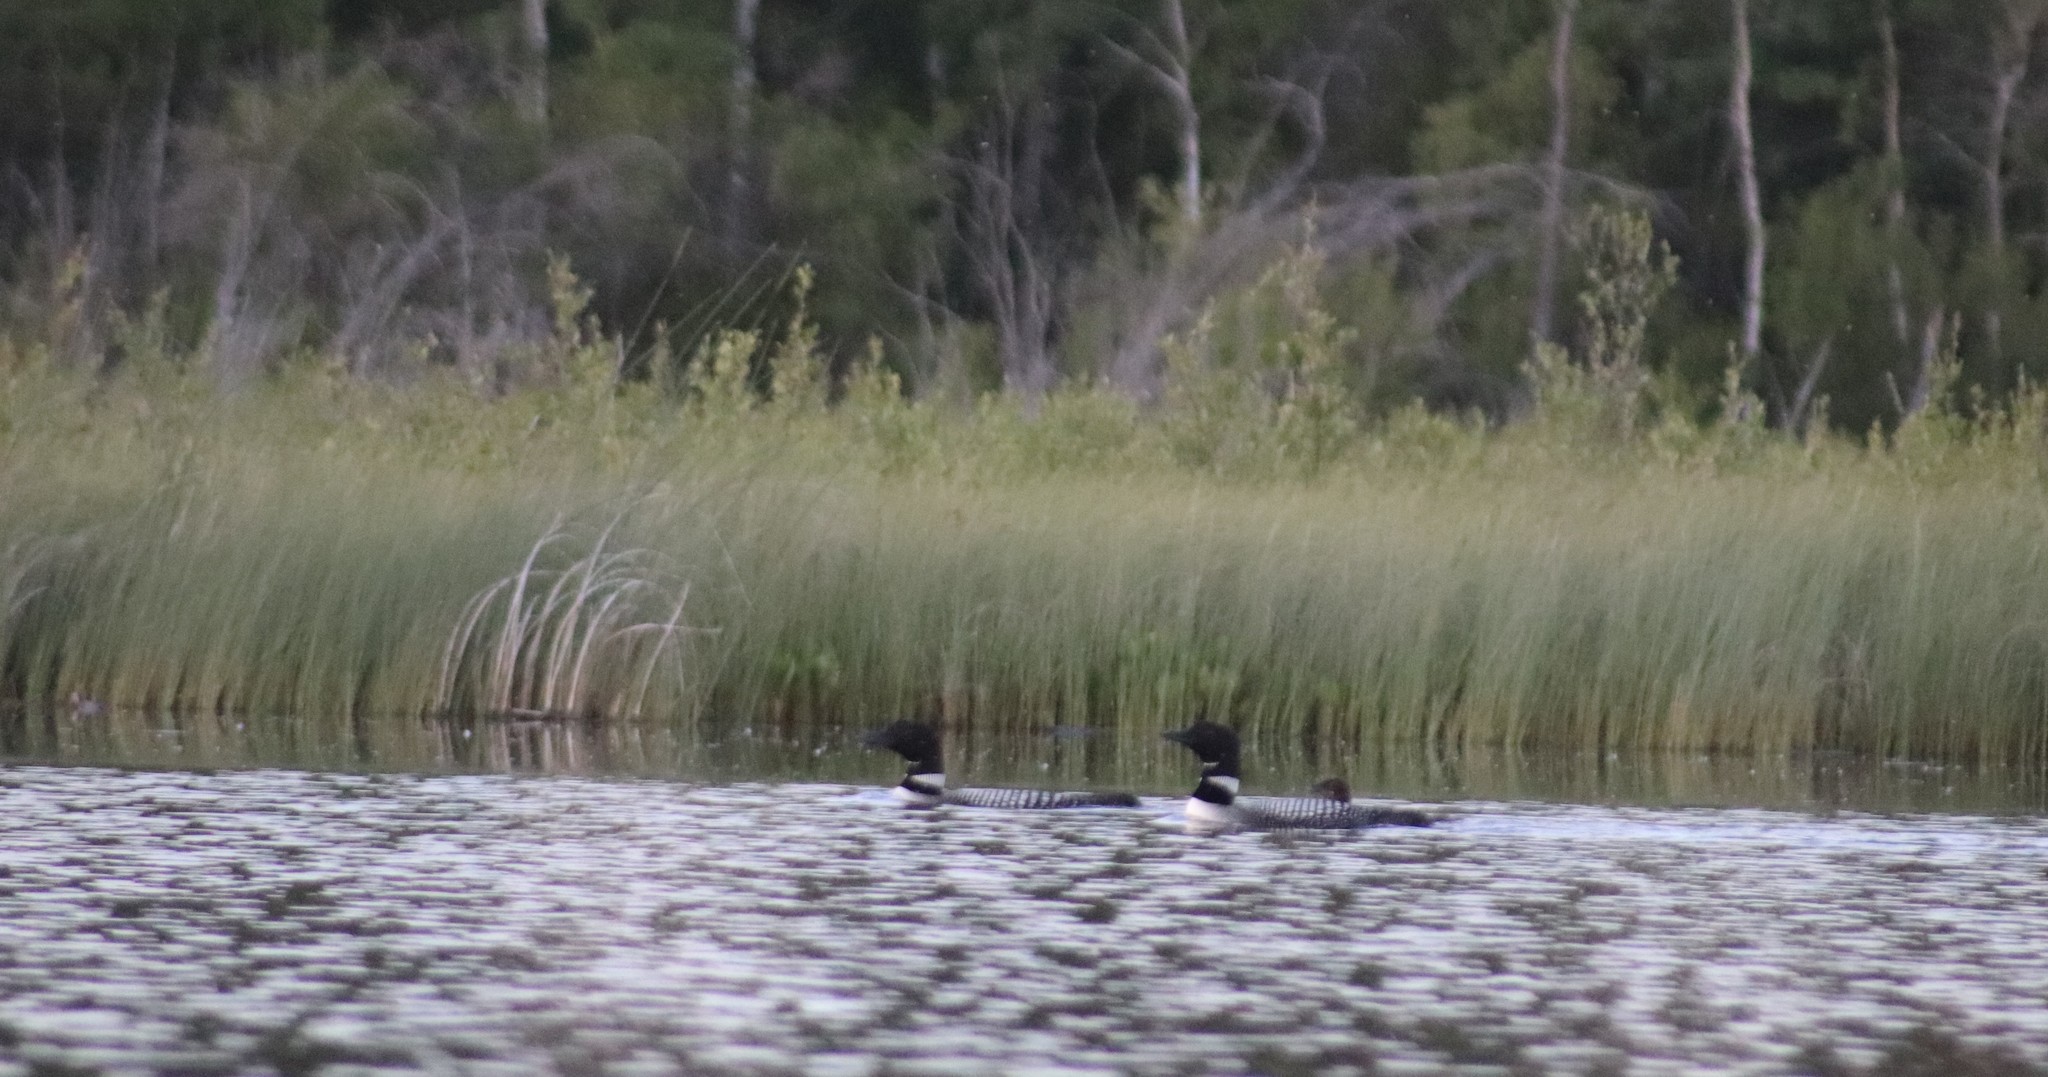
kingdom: Animalia
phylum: Chordata
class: Aves
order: Gaviiformes
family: Gaviidae
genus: Gavia
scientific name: Gavia immer
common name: Common loon
